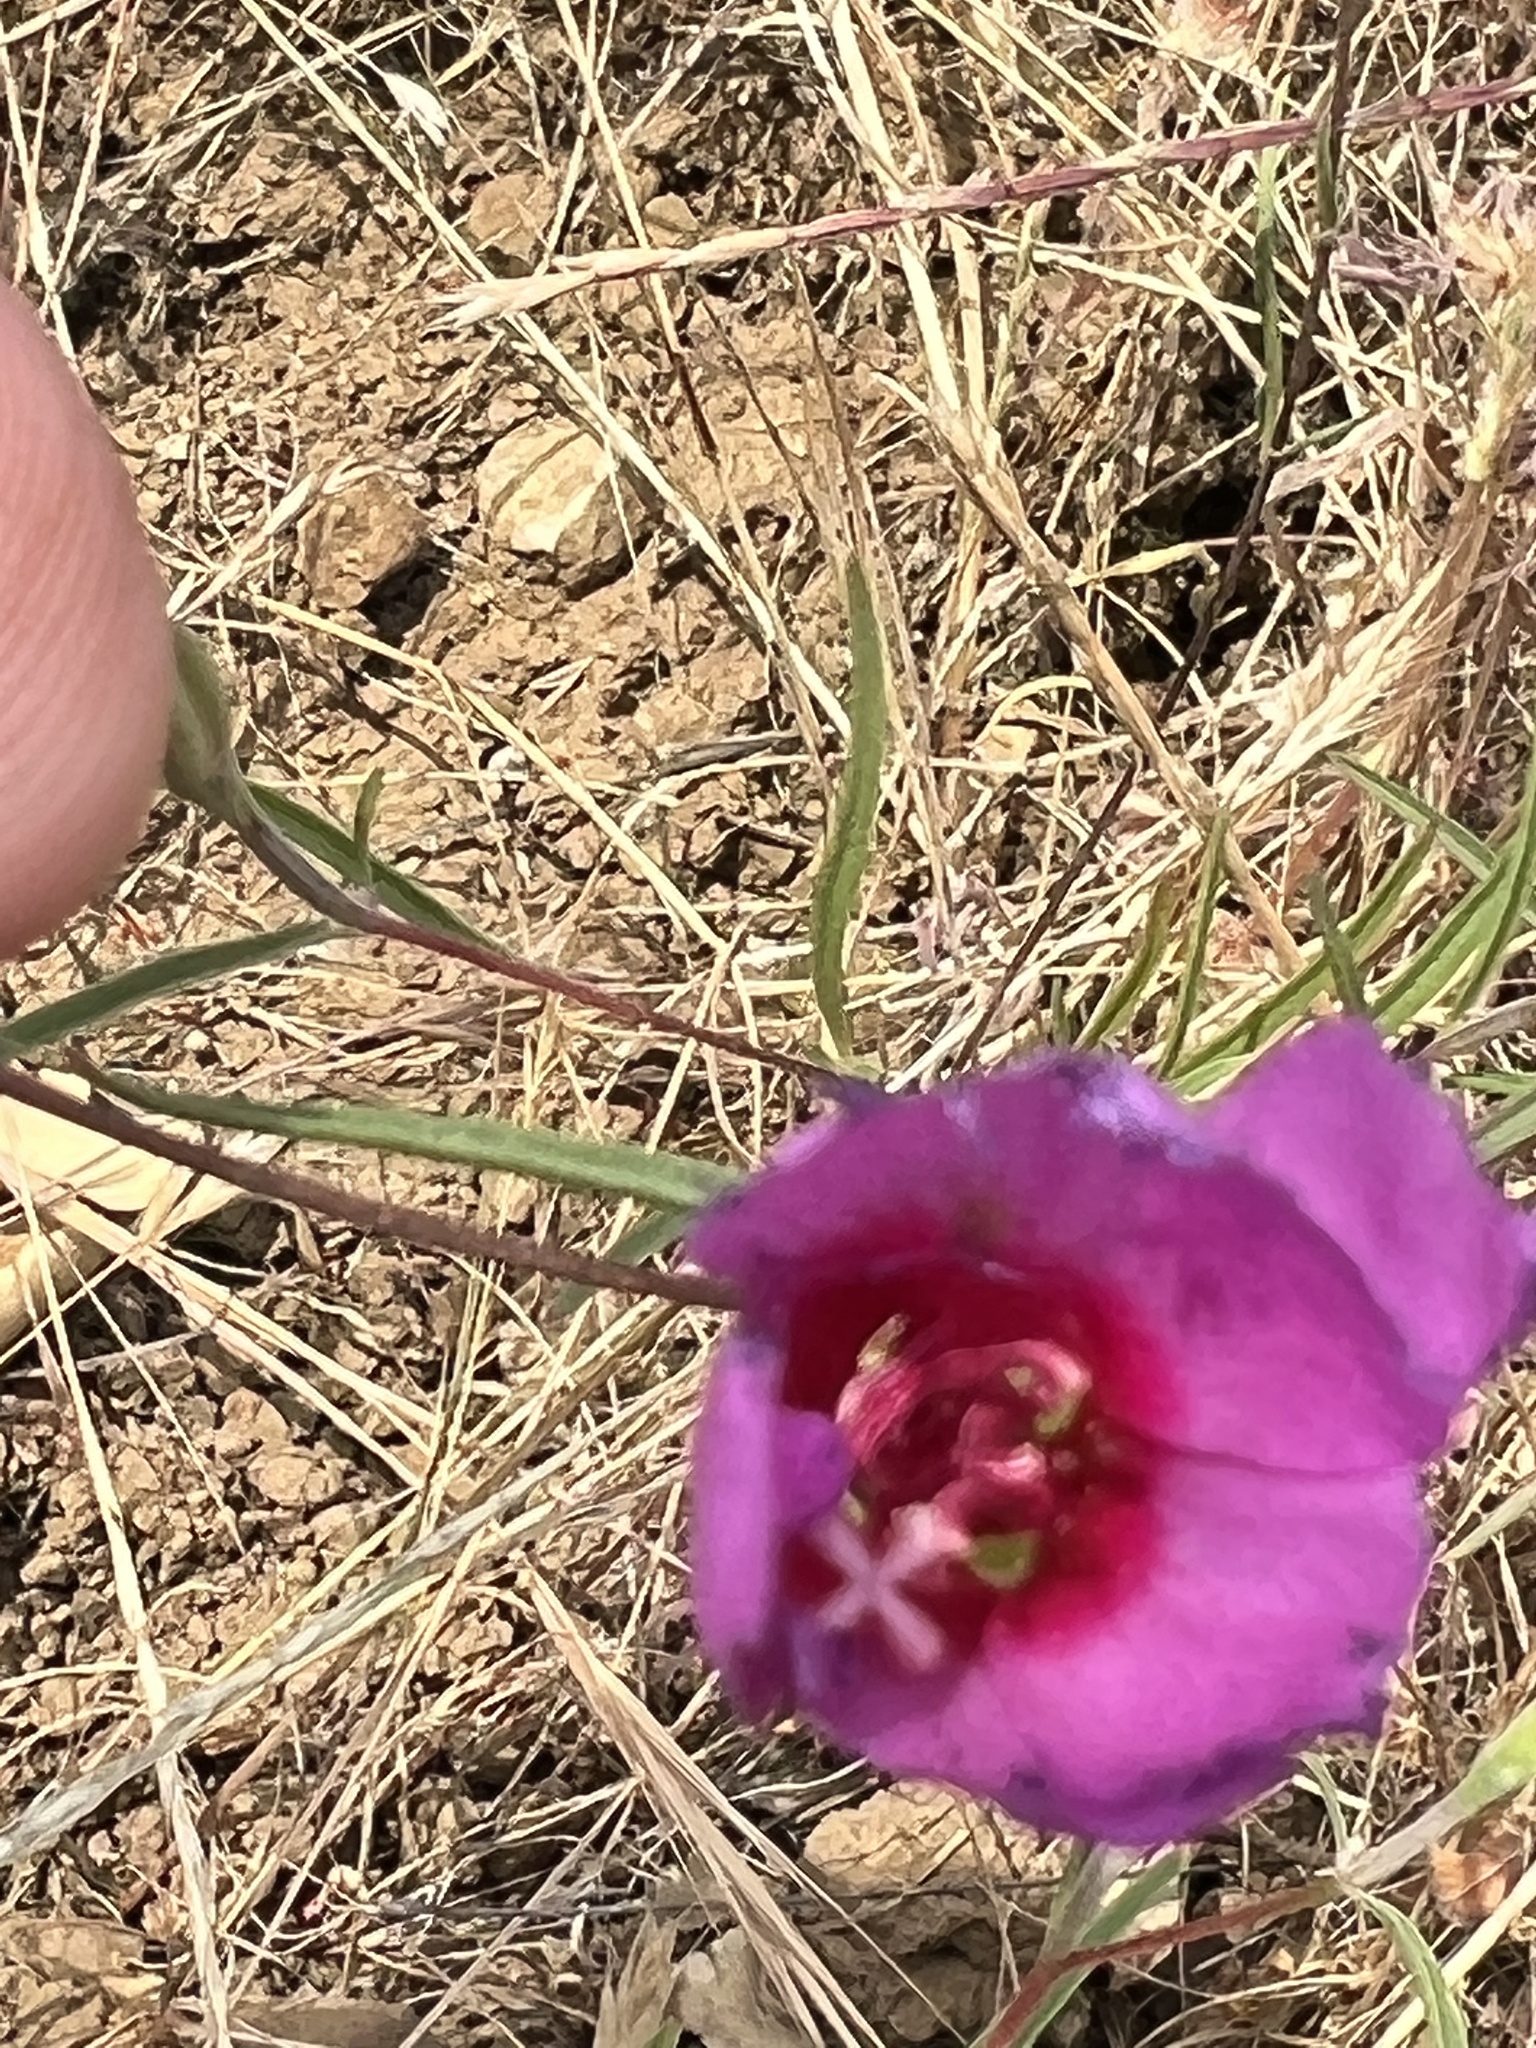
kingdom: Plantae
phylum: Tracheophyta
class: Magnoliopsida
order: Myrtales
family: Onagraceae
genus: Clarkia
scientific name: Clarkia rubicunda
